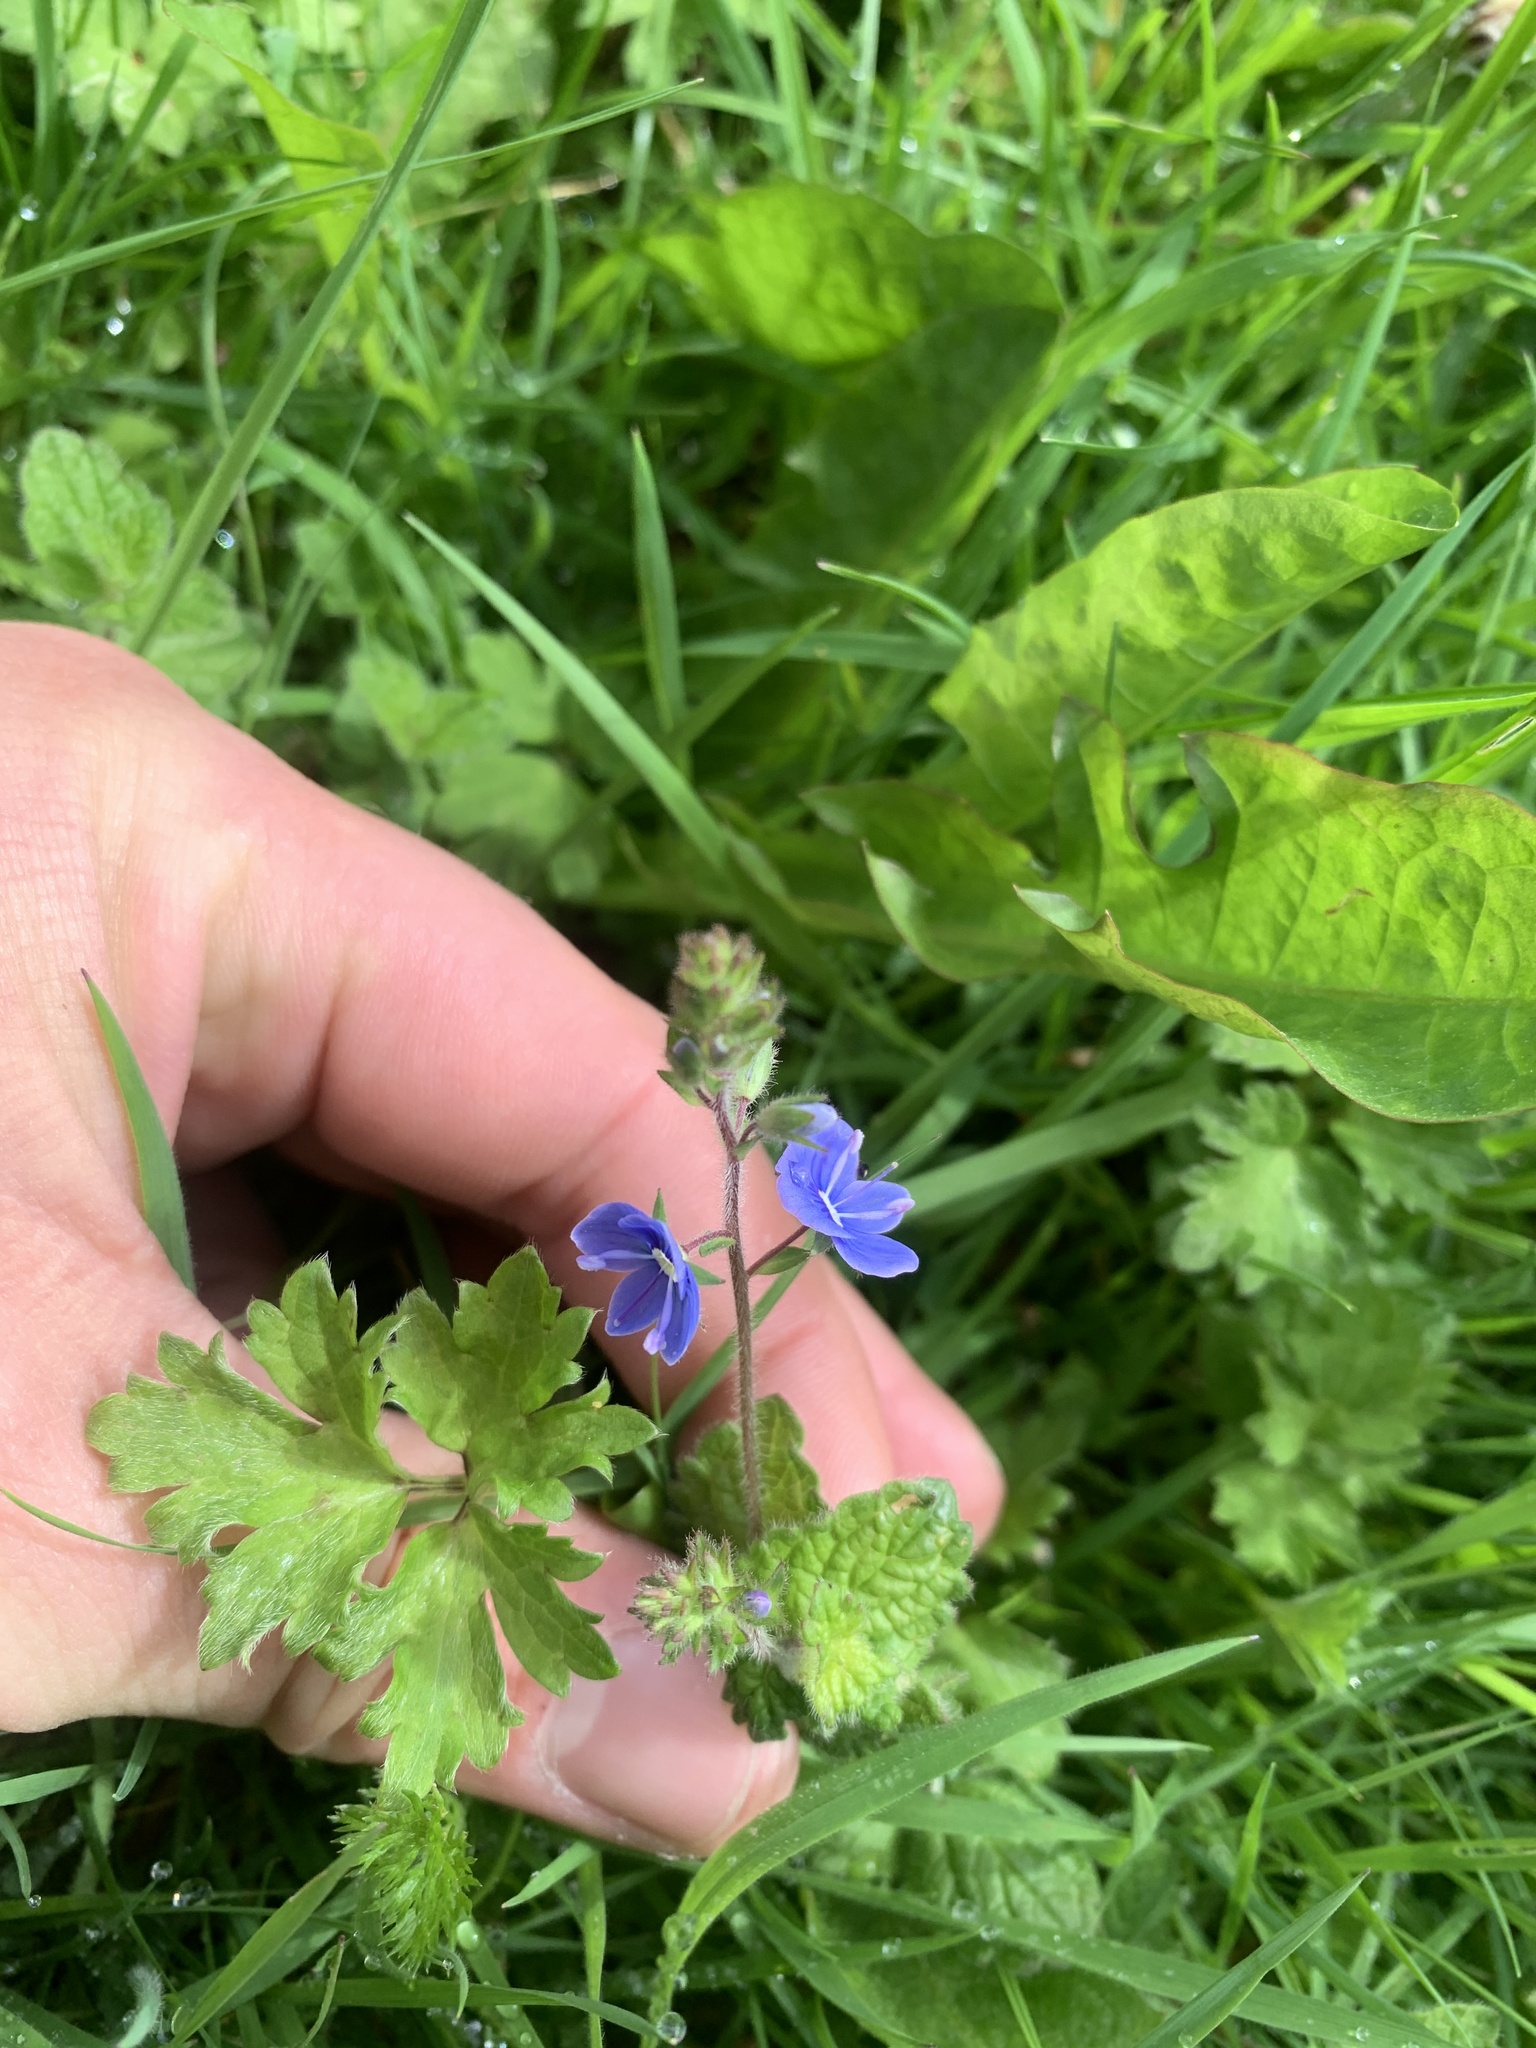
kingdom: Plantae
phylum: Tracheophyta
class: Magnoliopsida
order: Lamiales
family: Plantaginaceae
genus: Veronica
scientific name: Veronica chamaedrys
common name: Germander speedwell
